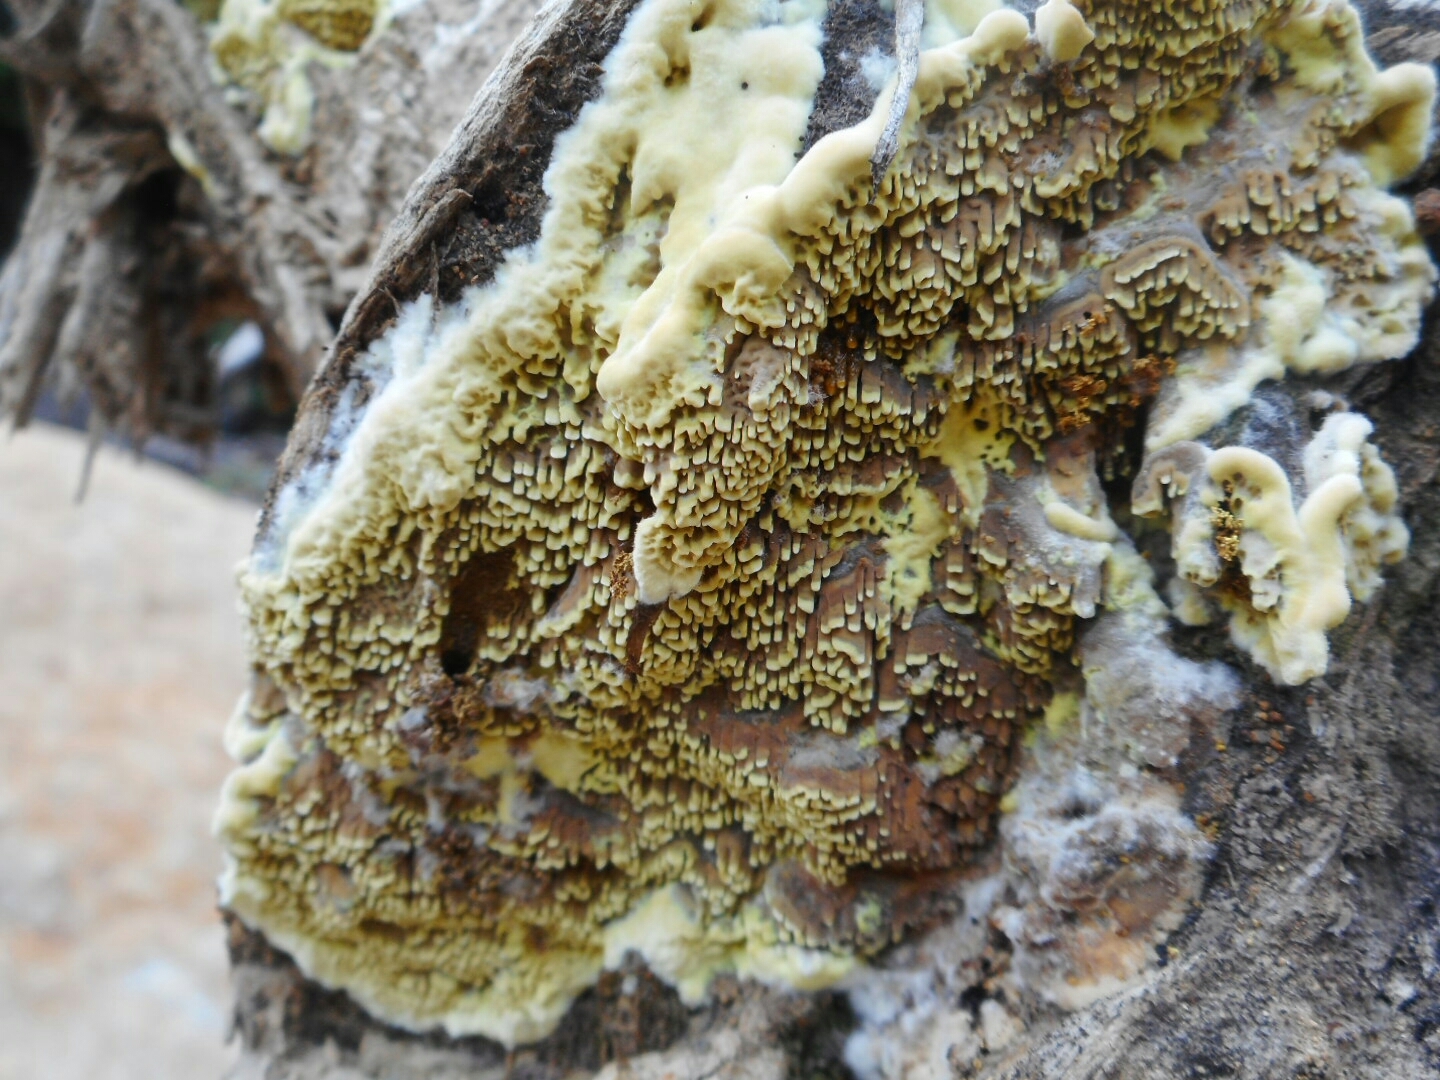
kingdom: Fungi
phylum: Basidiomycota
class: Agaricomycetes
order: Polyporales
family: Irpicaceae
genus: Flavodon
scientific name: Flavodon flavus
